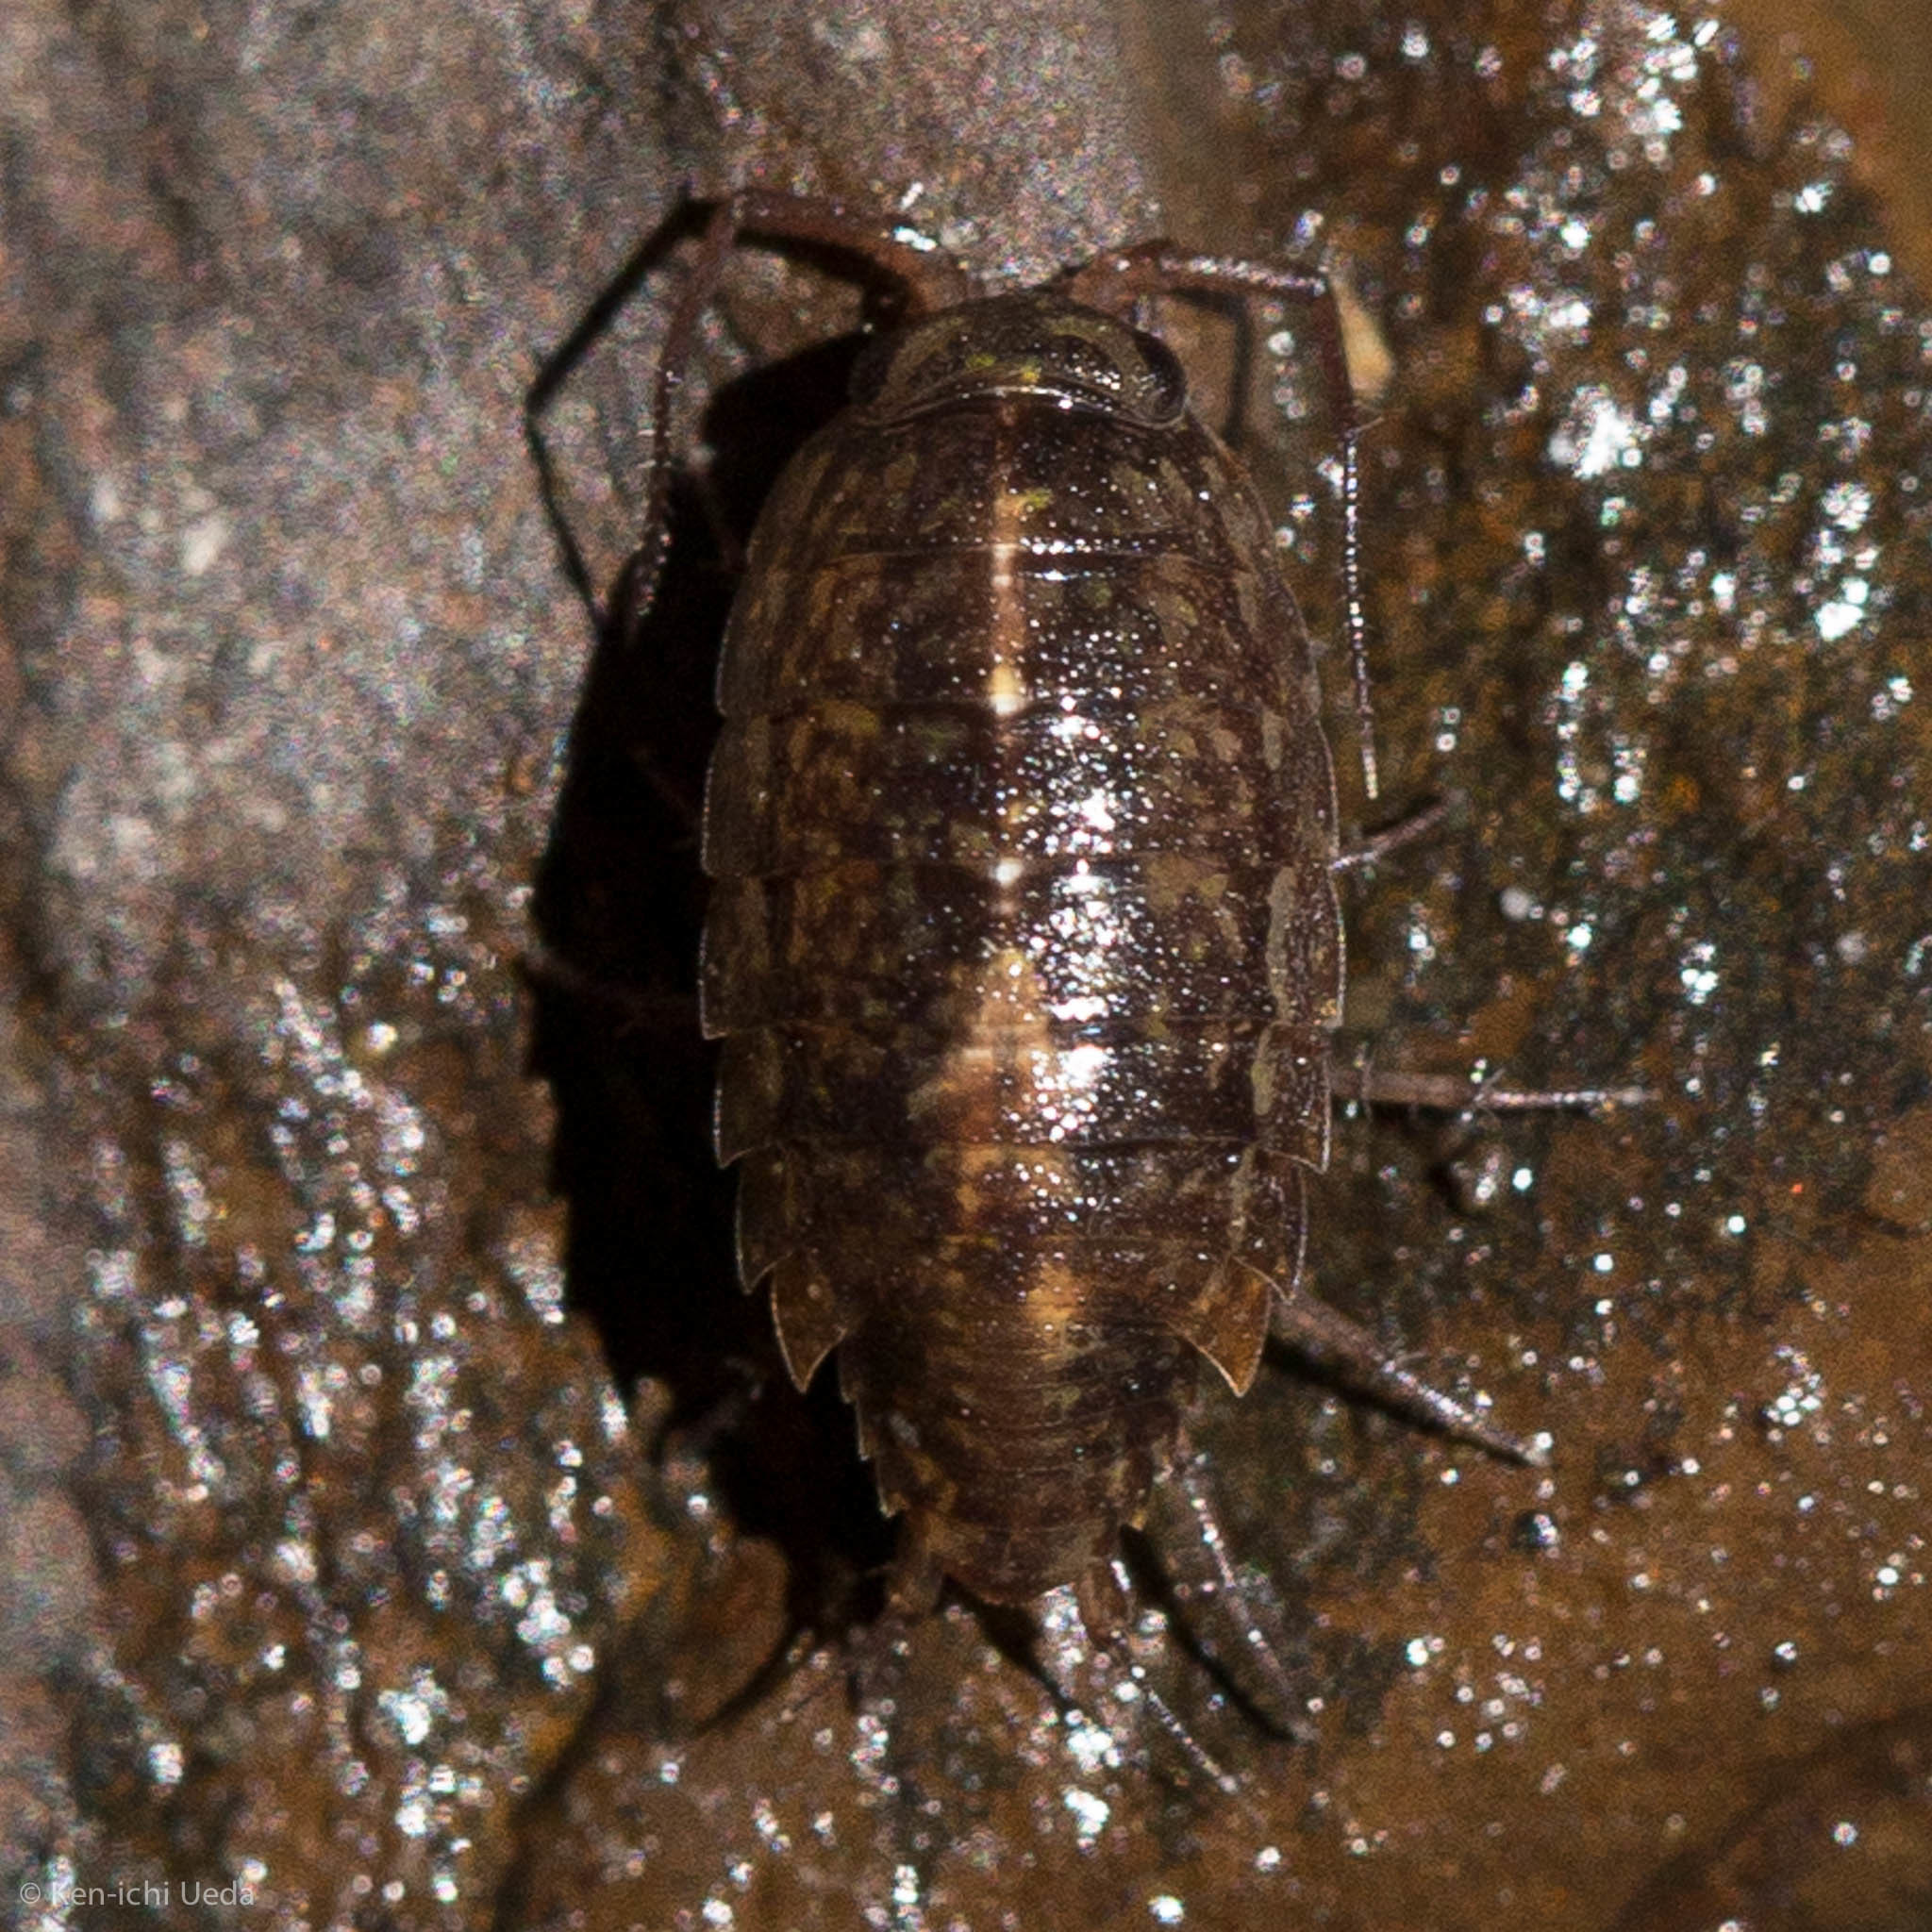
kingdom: Animalia
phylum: Arthropoda
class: Malacostraca
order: Isopoda
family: Ligiidae
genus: Ligidium
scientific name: Ligidium latum
